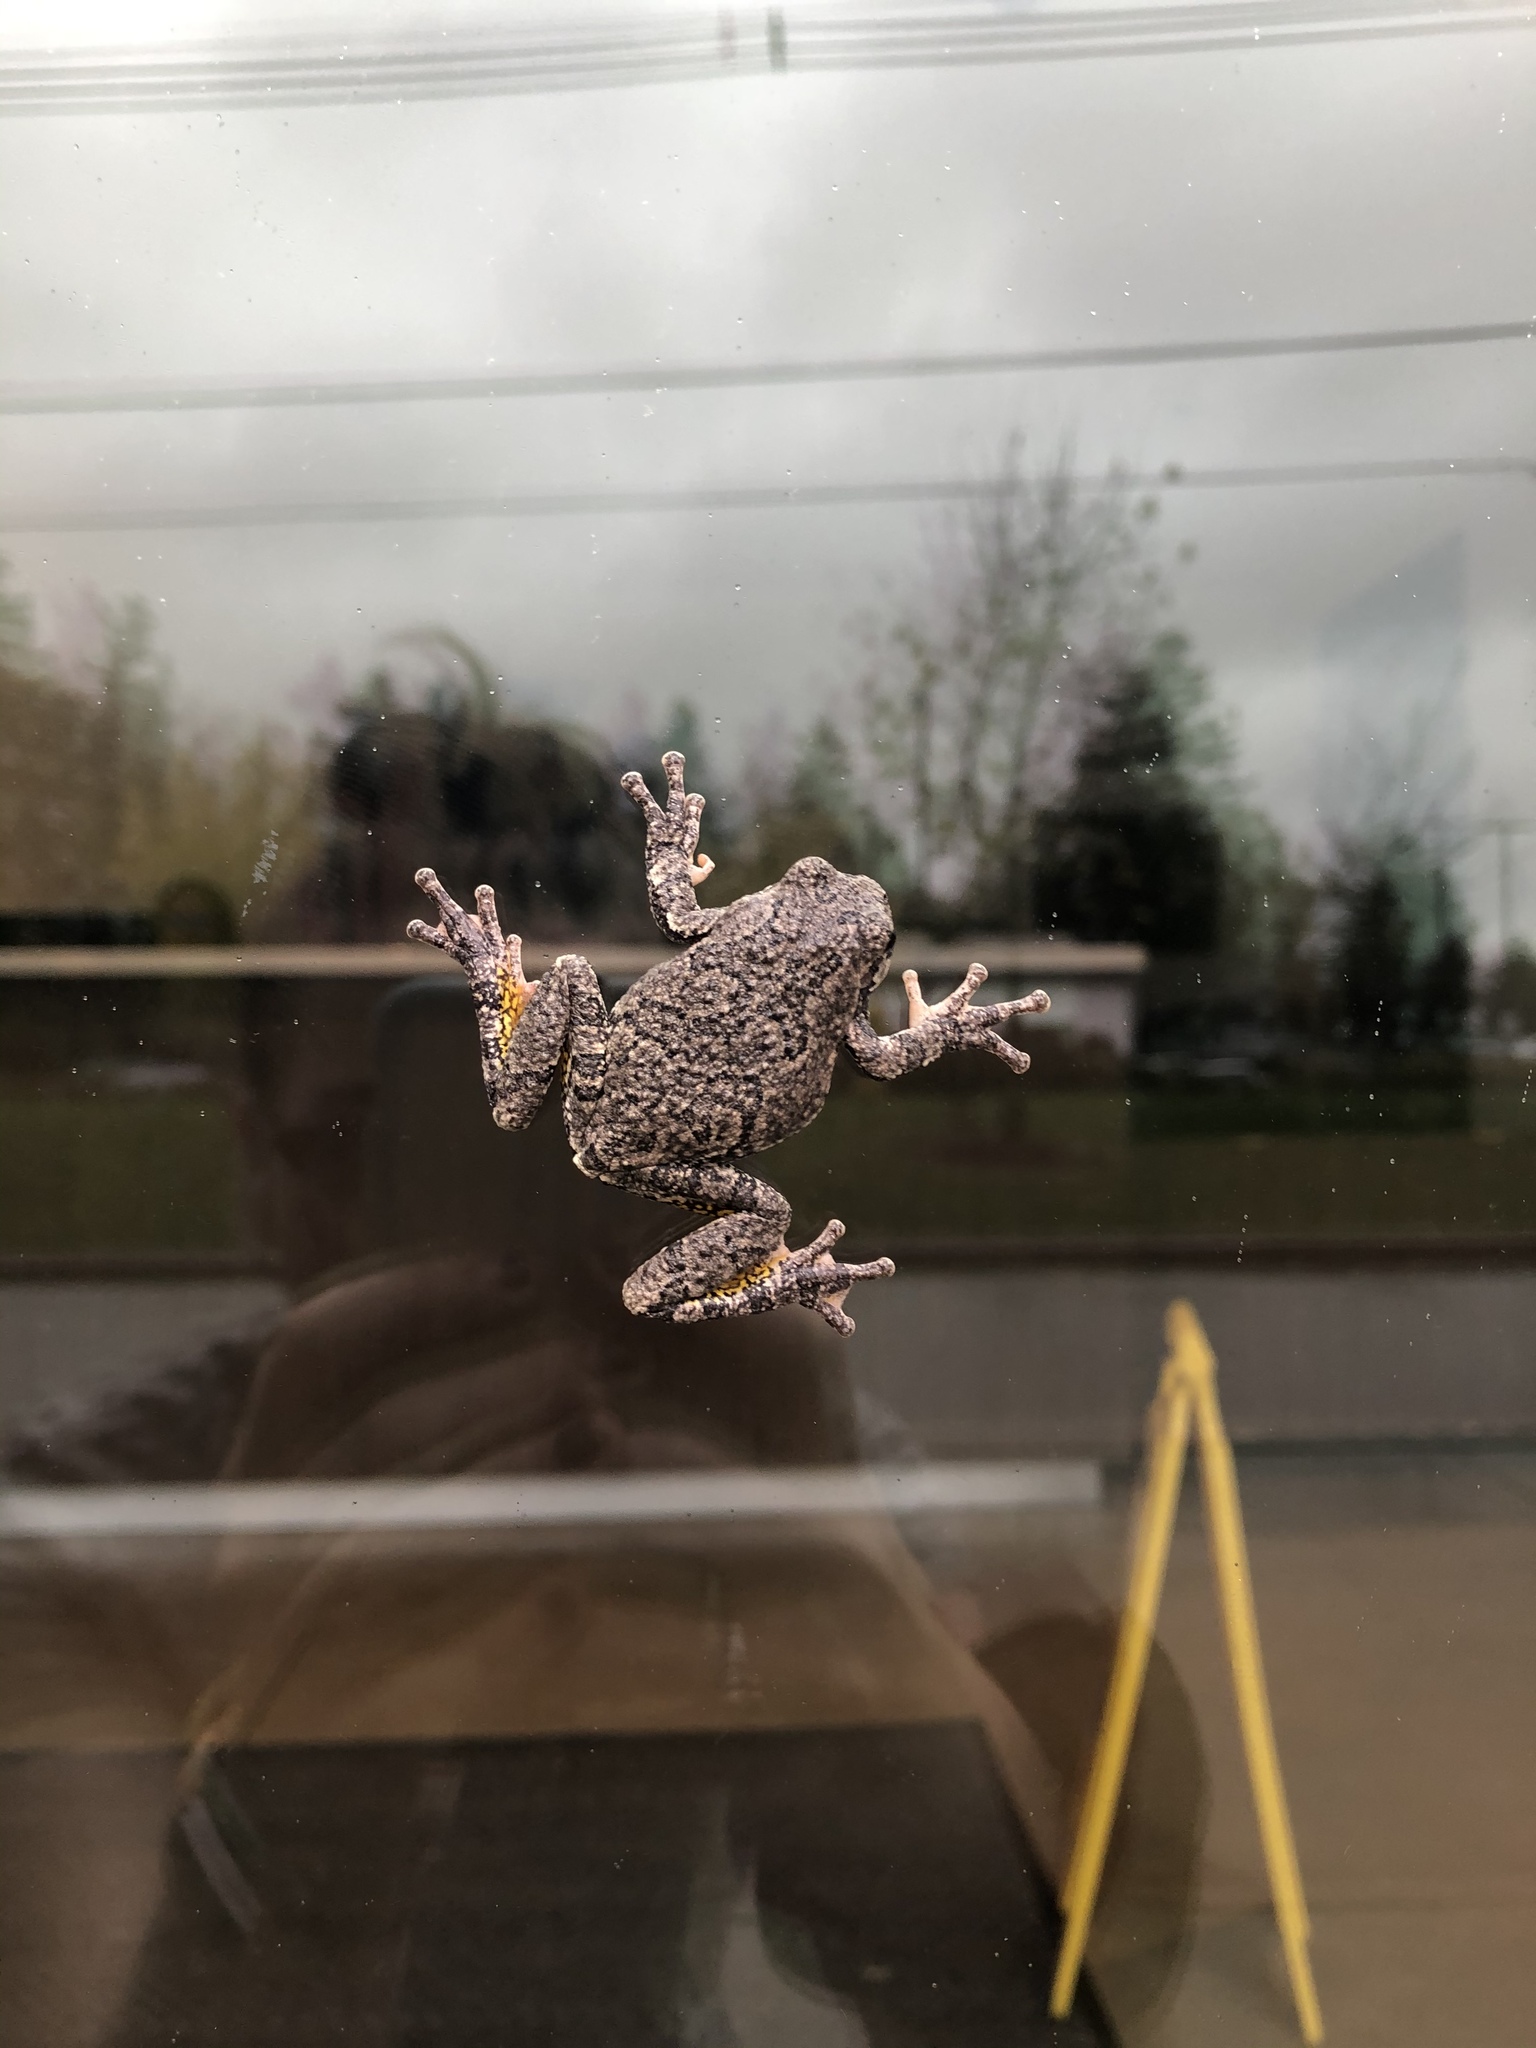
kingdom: Animalia
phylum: Chordata
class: Amphibia
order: Anura
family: Hylidae
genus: Dryophytes
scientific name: Dryophytes versicolor
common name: Gray treefrog
